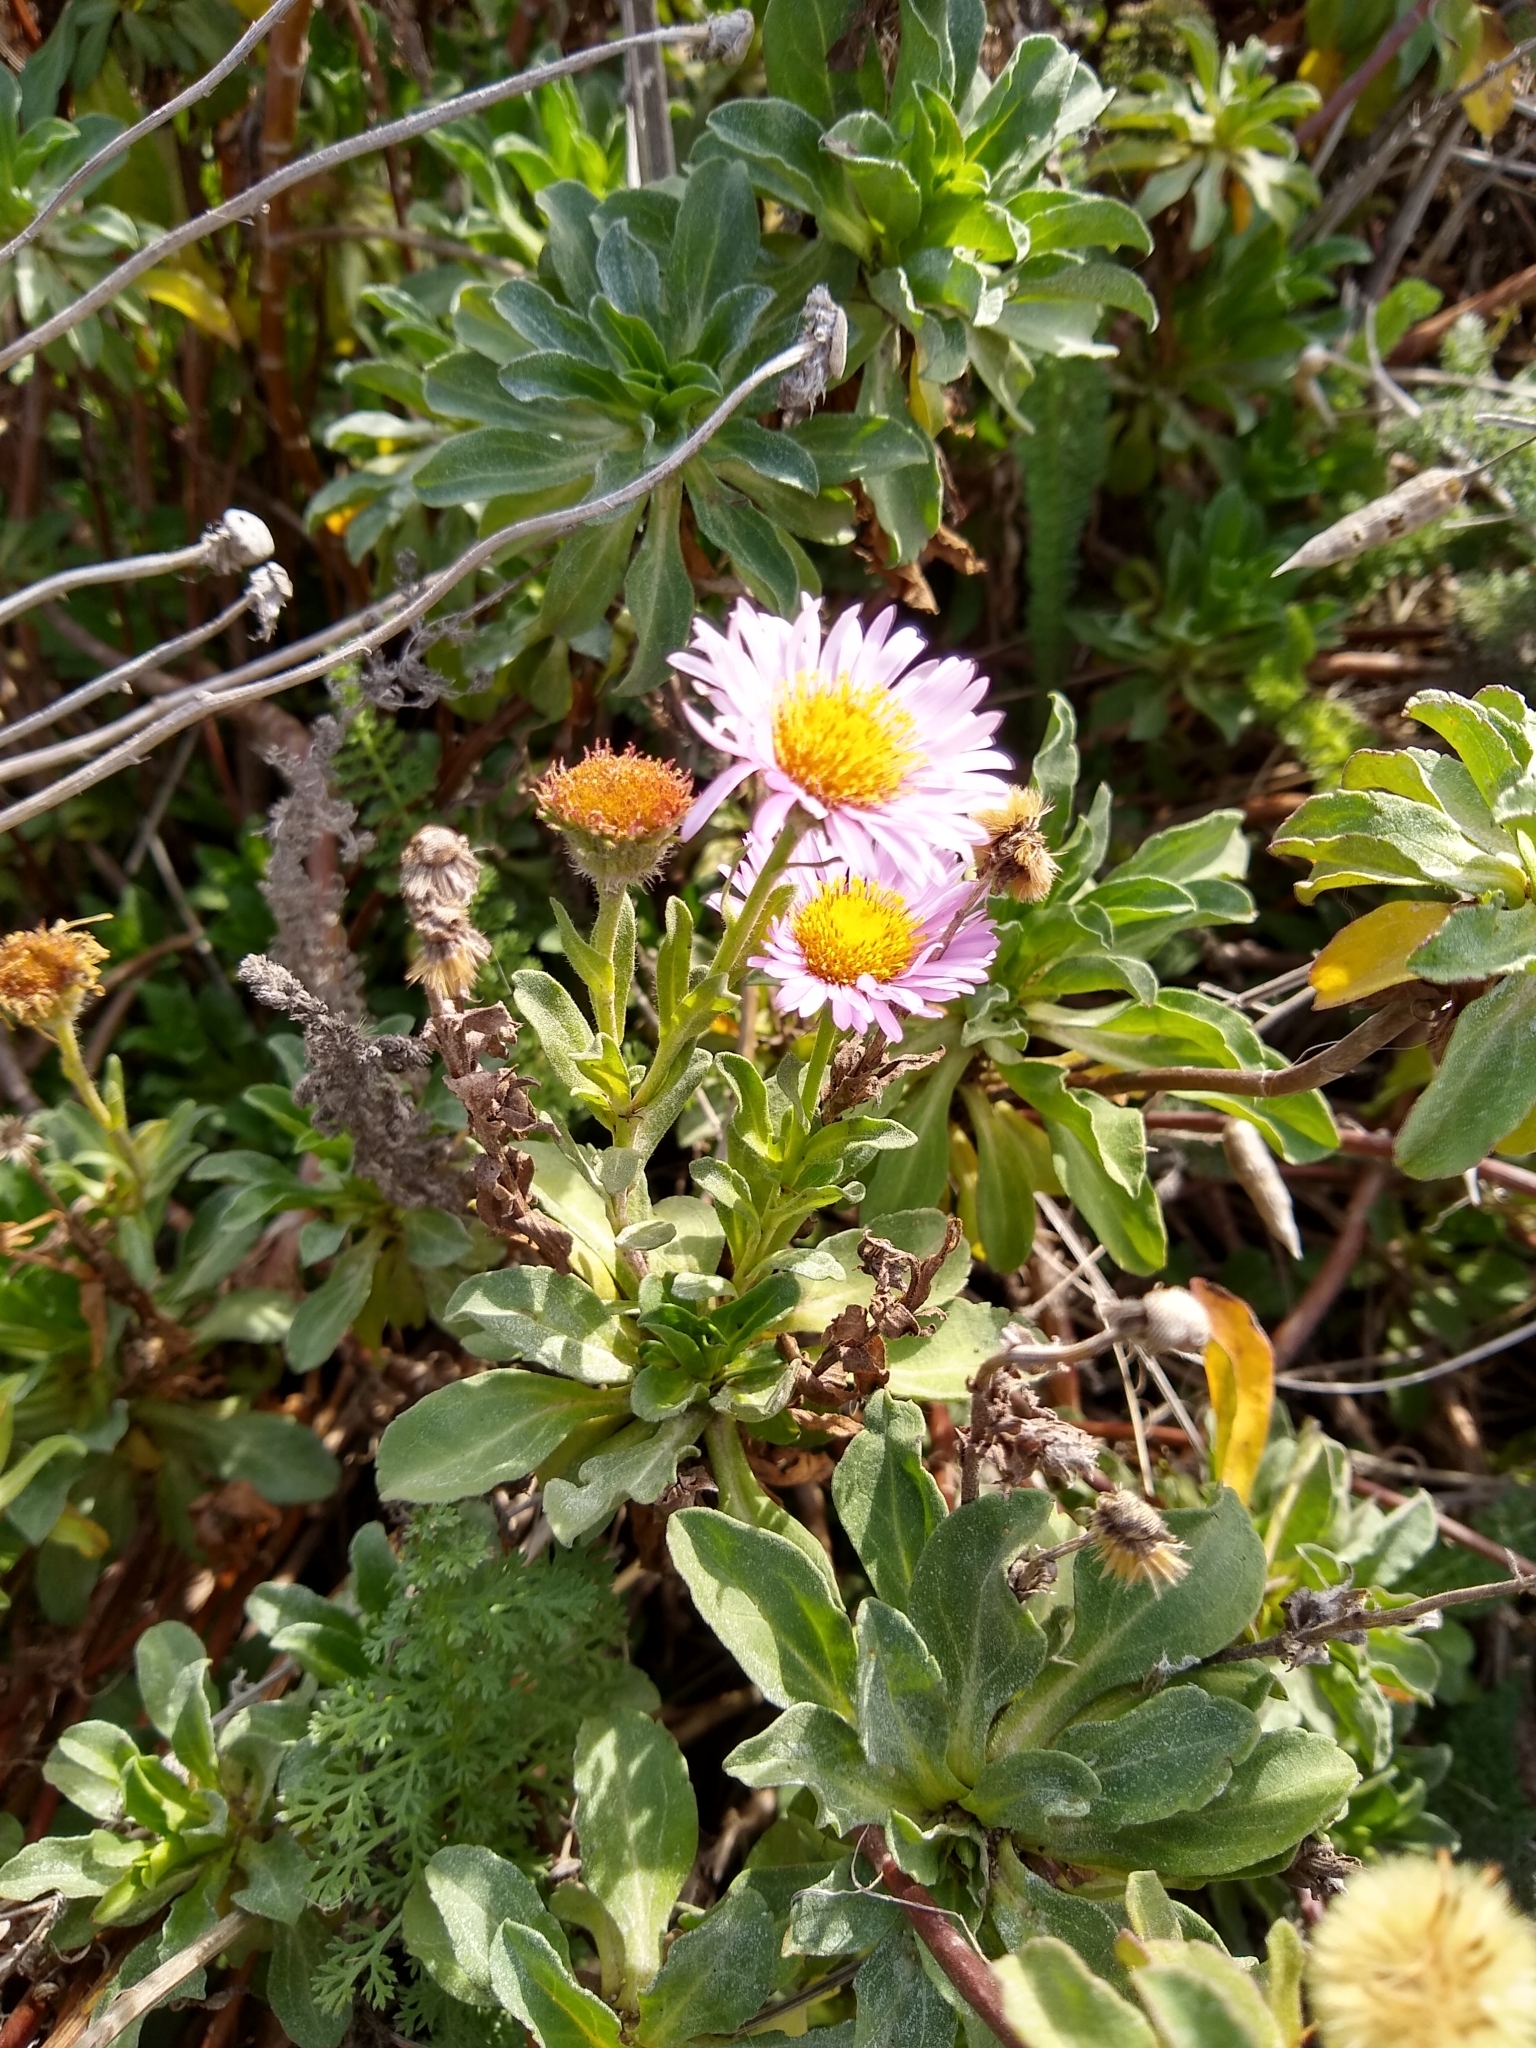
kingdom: Plantae
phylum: Tracheophyta
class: Magnoliopsida
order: Asterales
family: Asteraceae
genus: Erigeron
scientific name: Erigeron glaucus
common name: Seaside daisy
